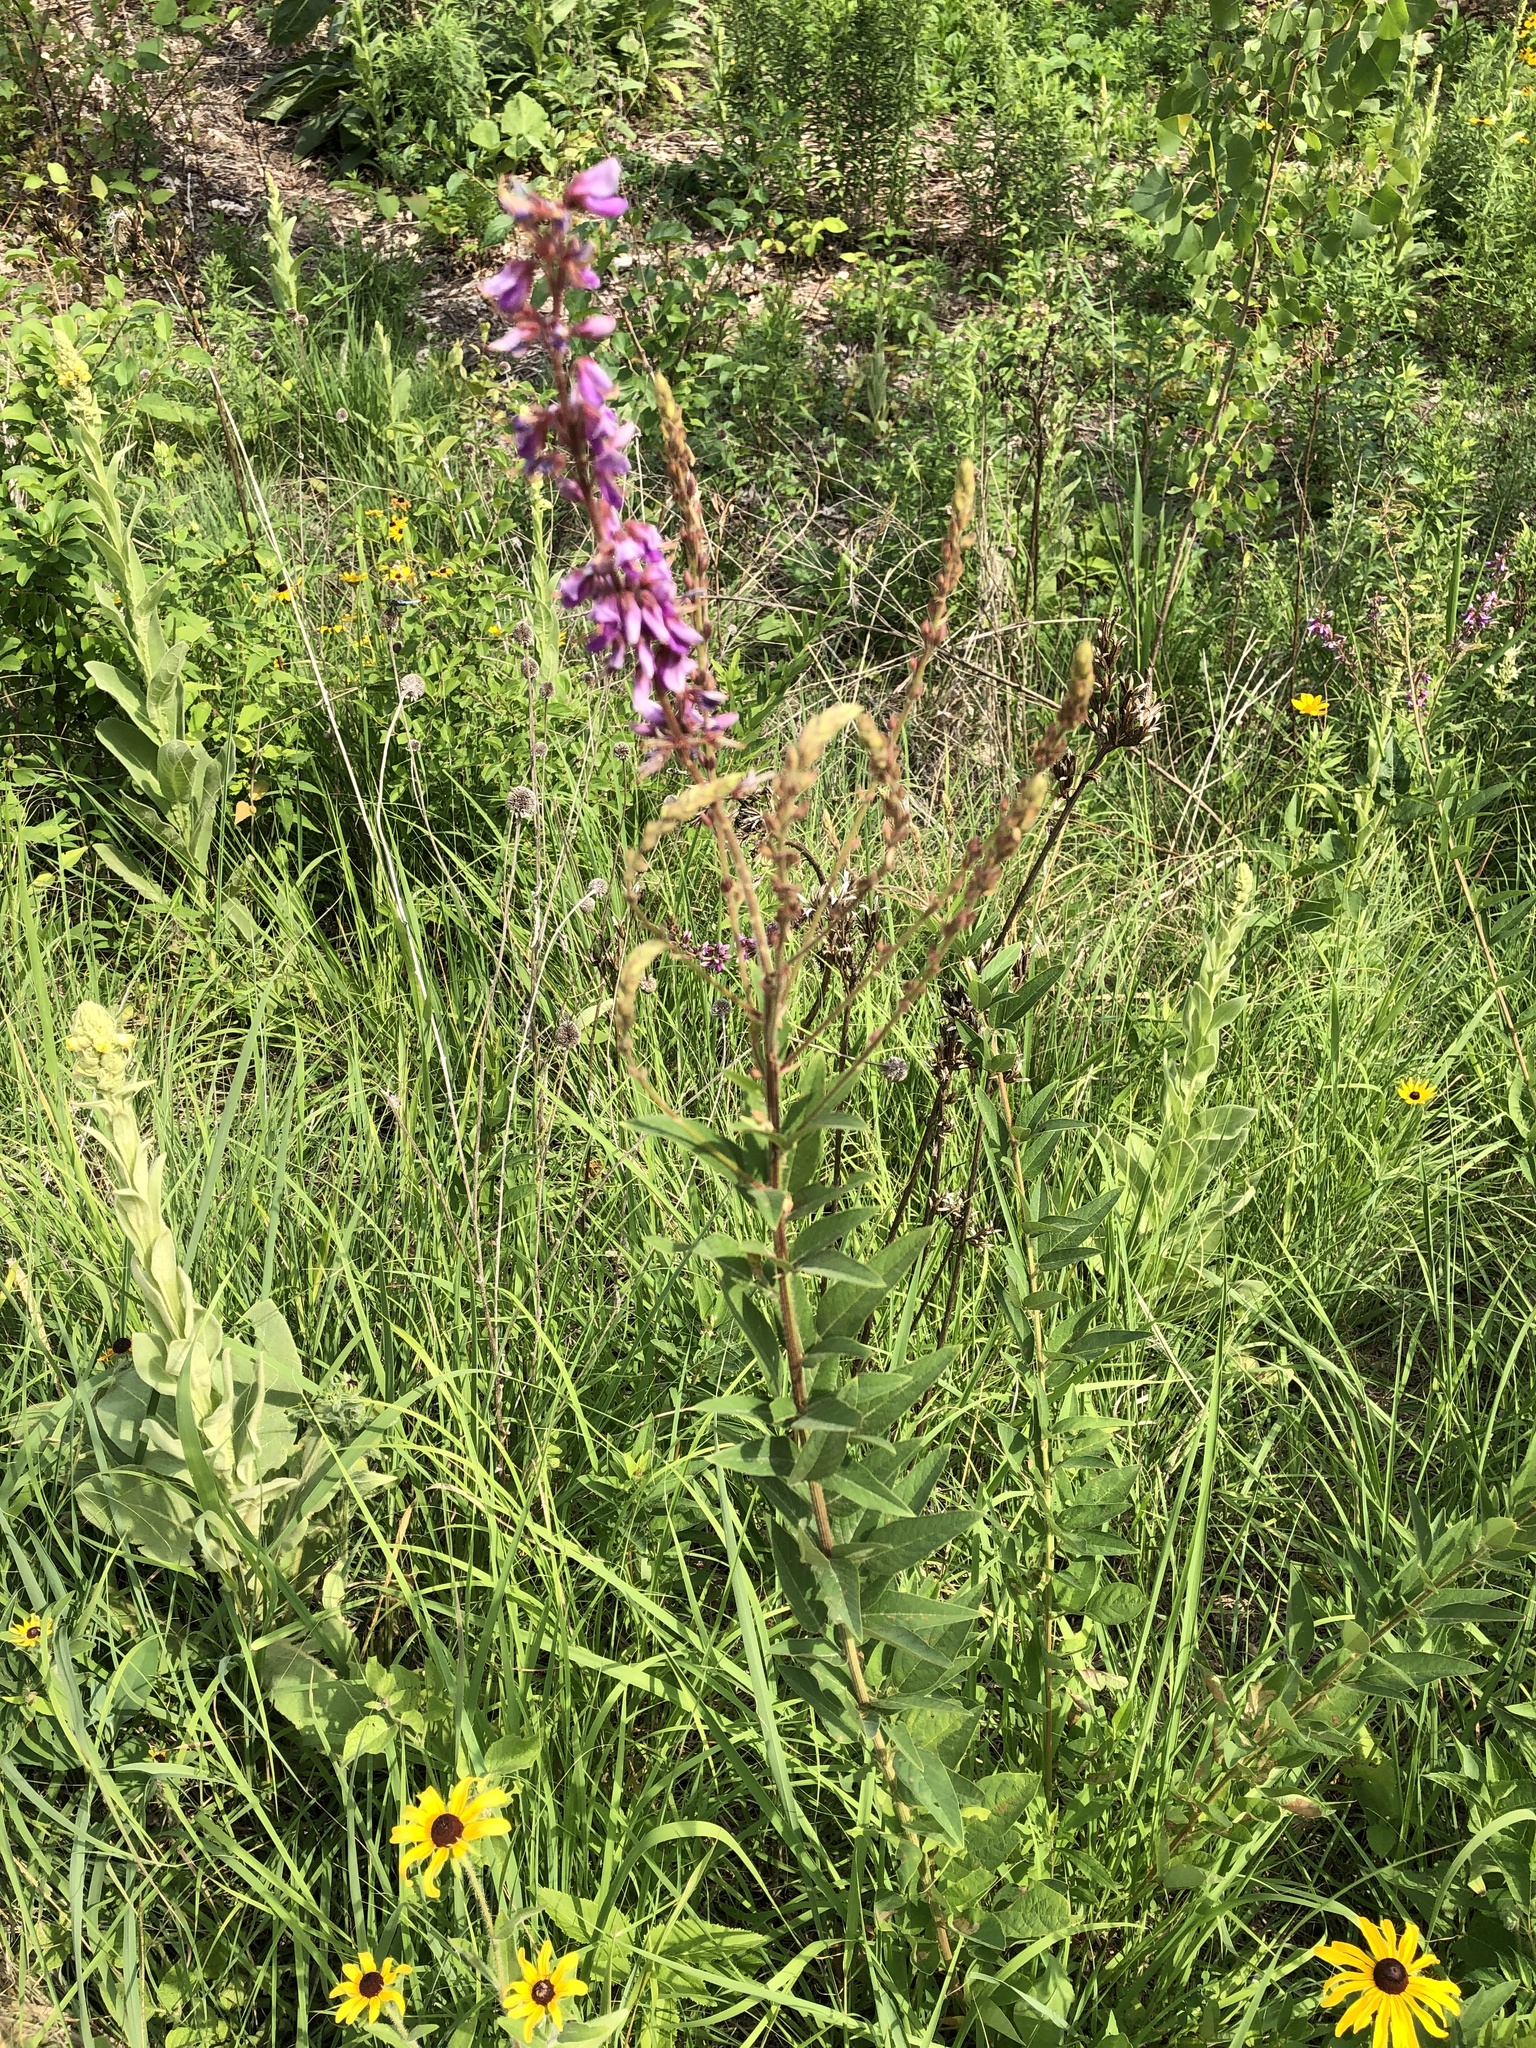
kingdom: Plantae
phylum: Tracheophyta
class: Magnoliopsida
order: Fabales
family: Fabaceae
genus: Desmodium
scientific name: Desmodium canadense
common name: Canada tick-trefoil
